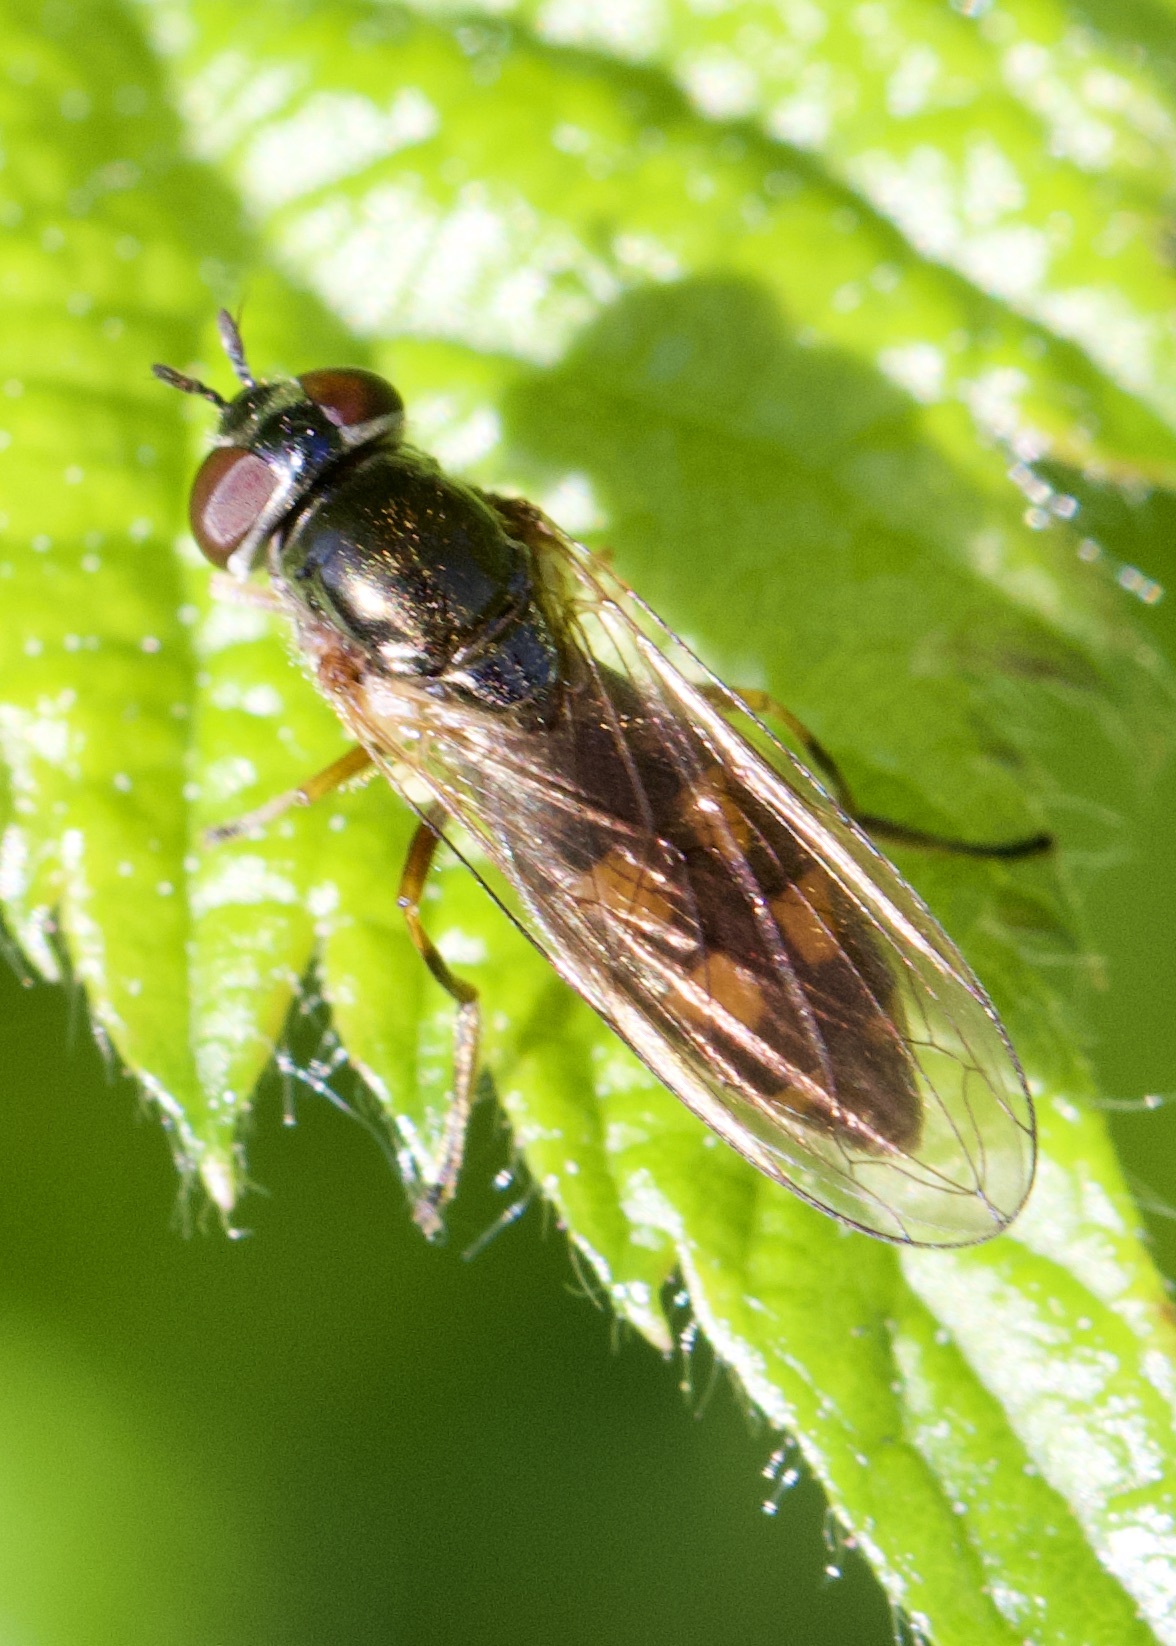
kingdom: Animalia
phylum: Arthropoda
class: Insecta
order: Diptera
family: Syrphidae
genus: Melanostoma
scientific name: Melanostoma scalare
